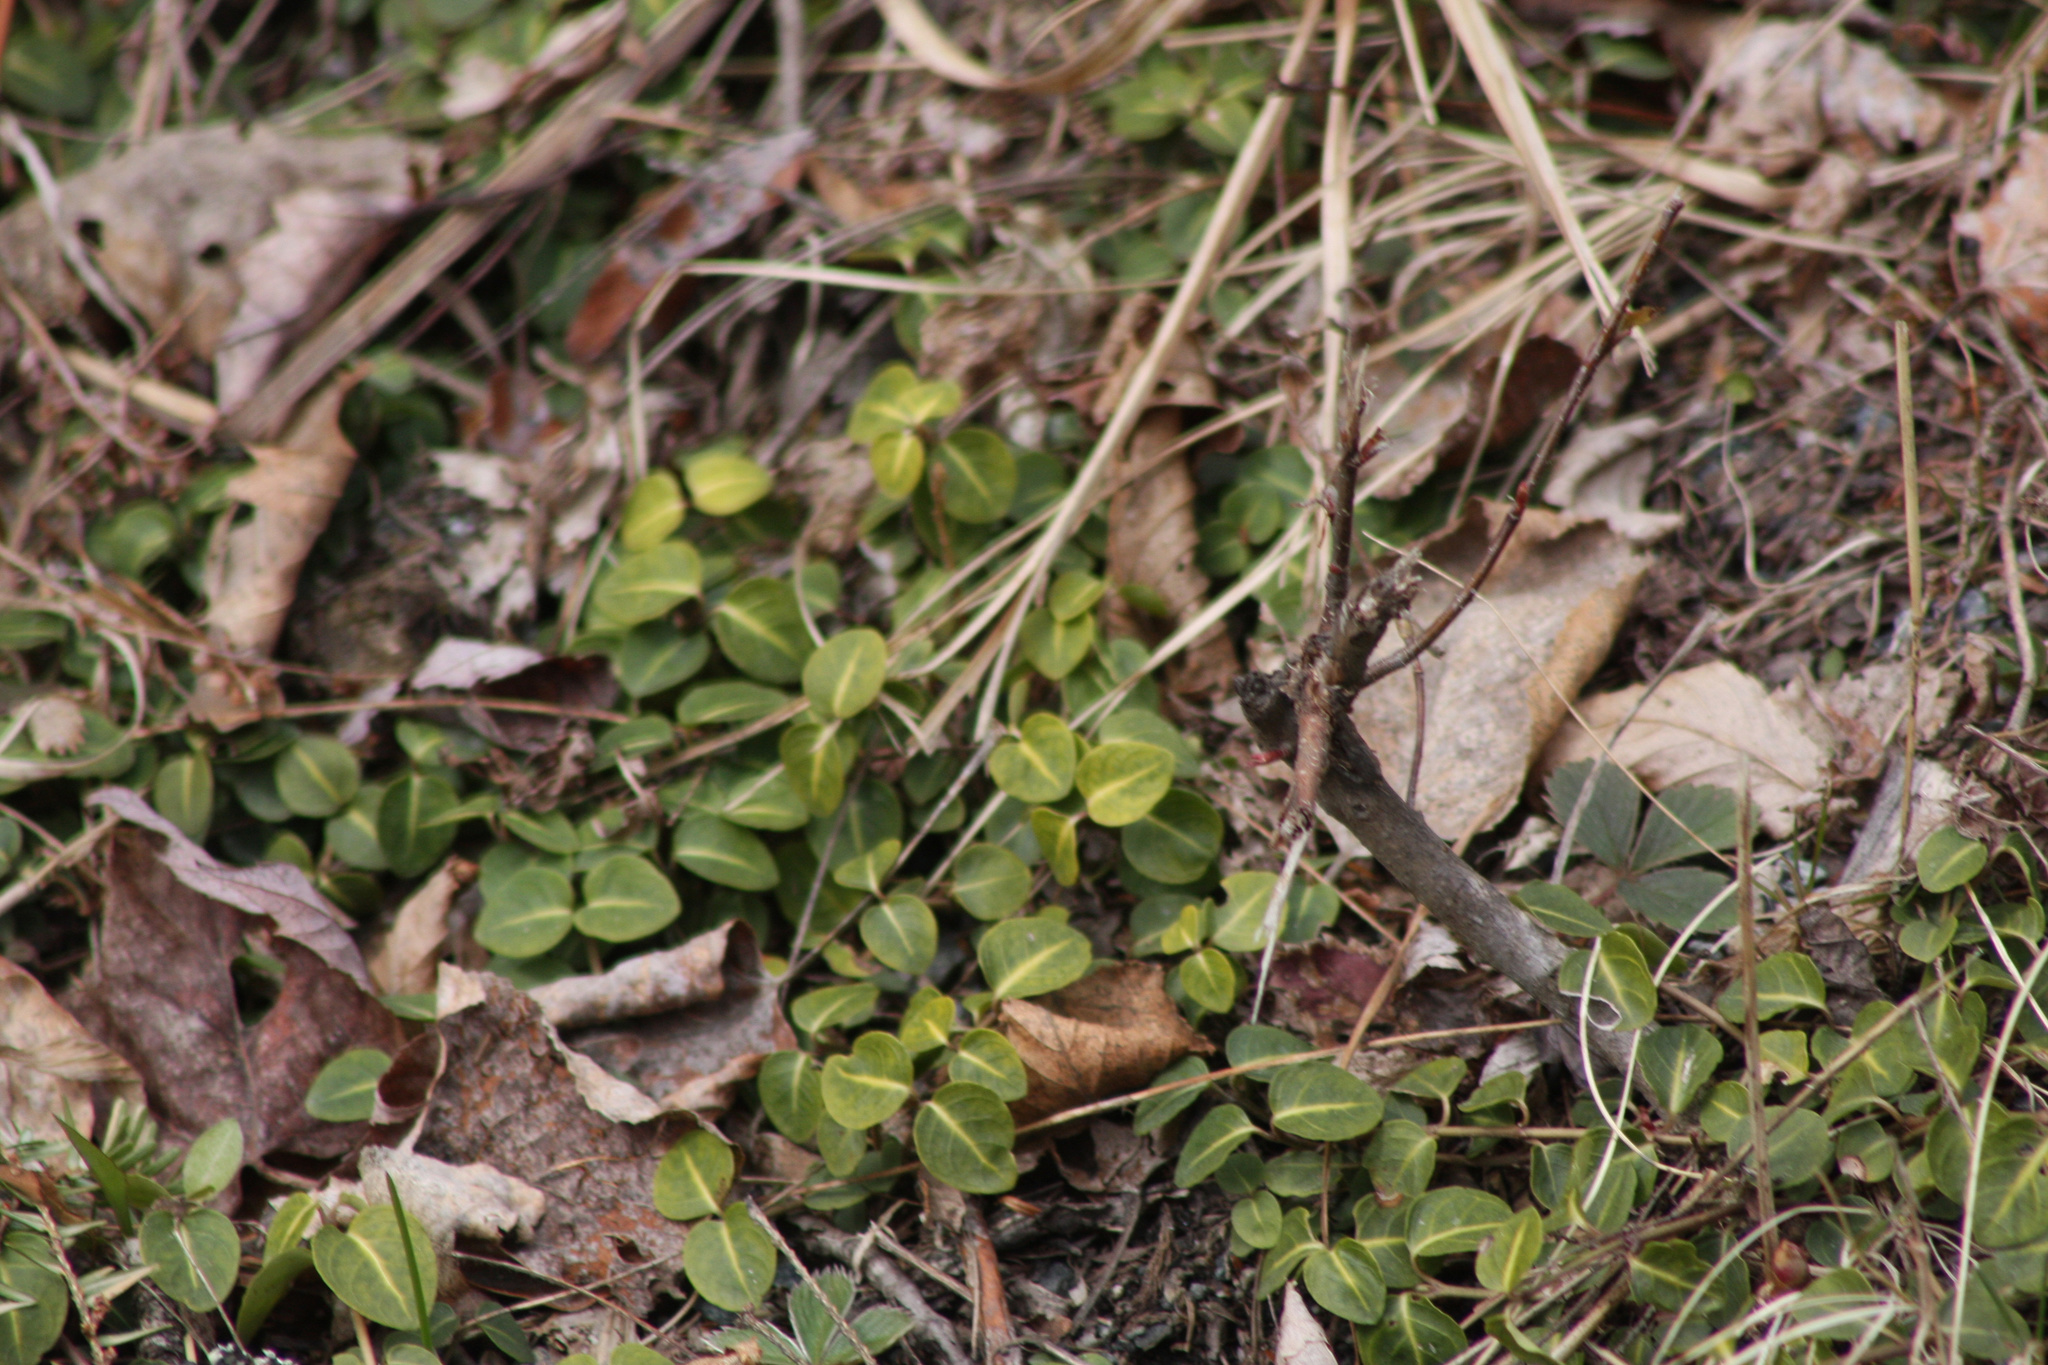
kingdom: Plantae
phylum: Tracheophyta
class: Magnoliopsida
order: Gentianales
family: Rubiaceae
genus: Mitchella
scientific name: Mitchella repens
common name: Partridge-berry
